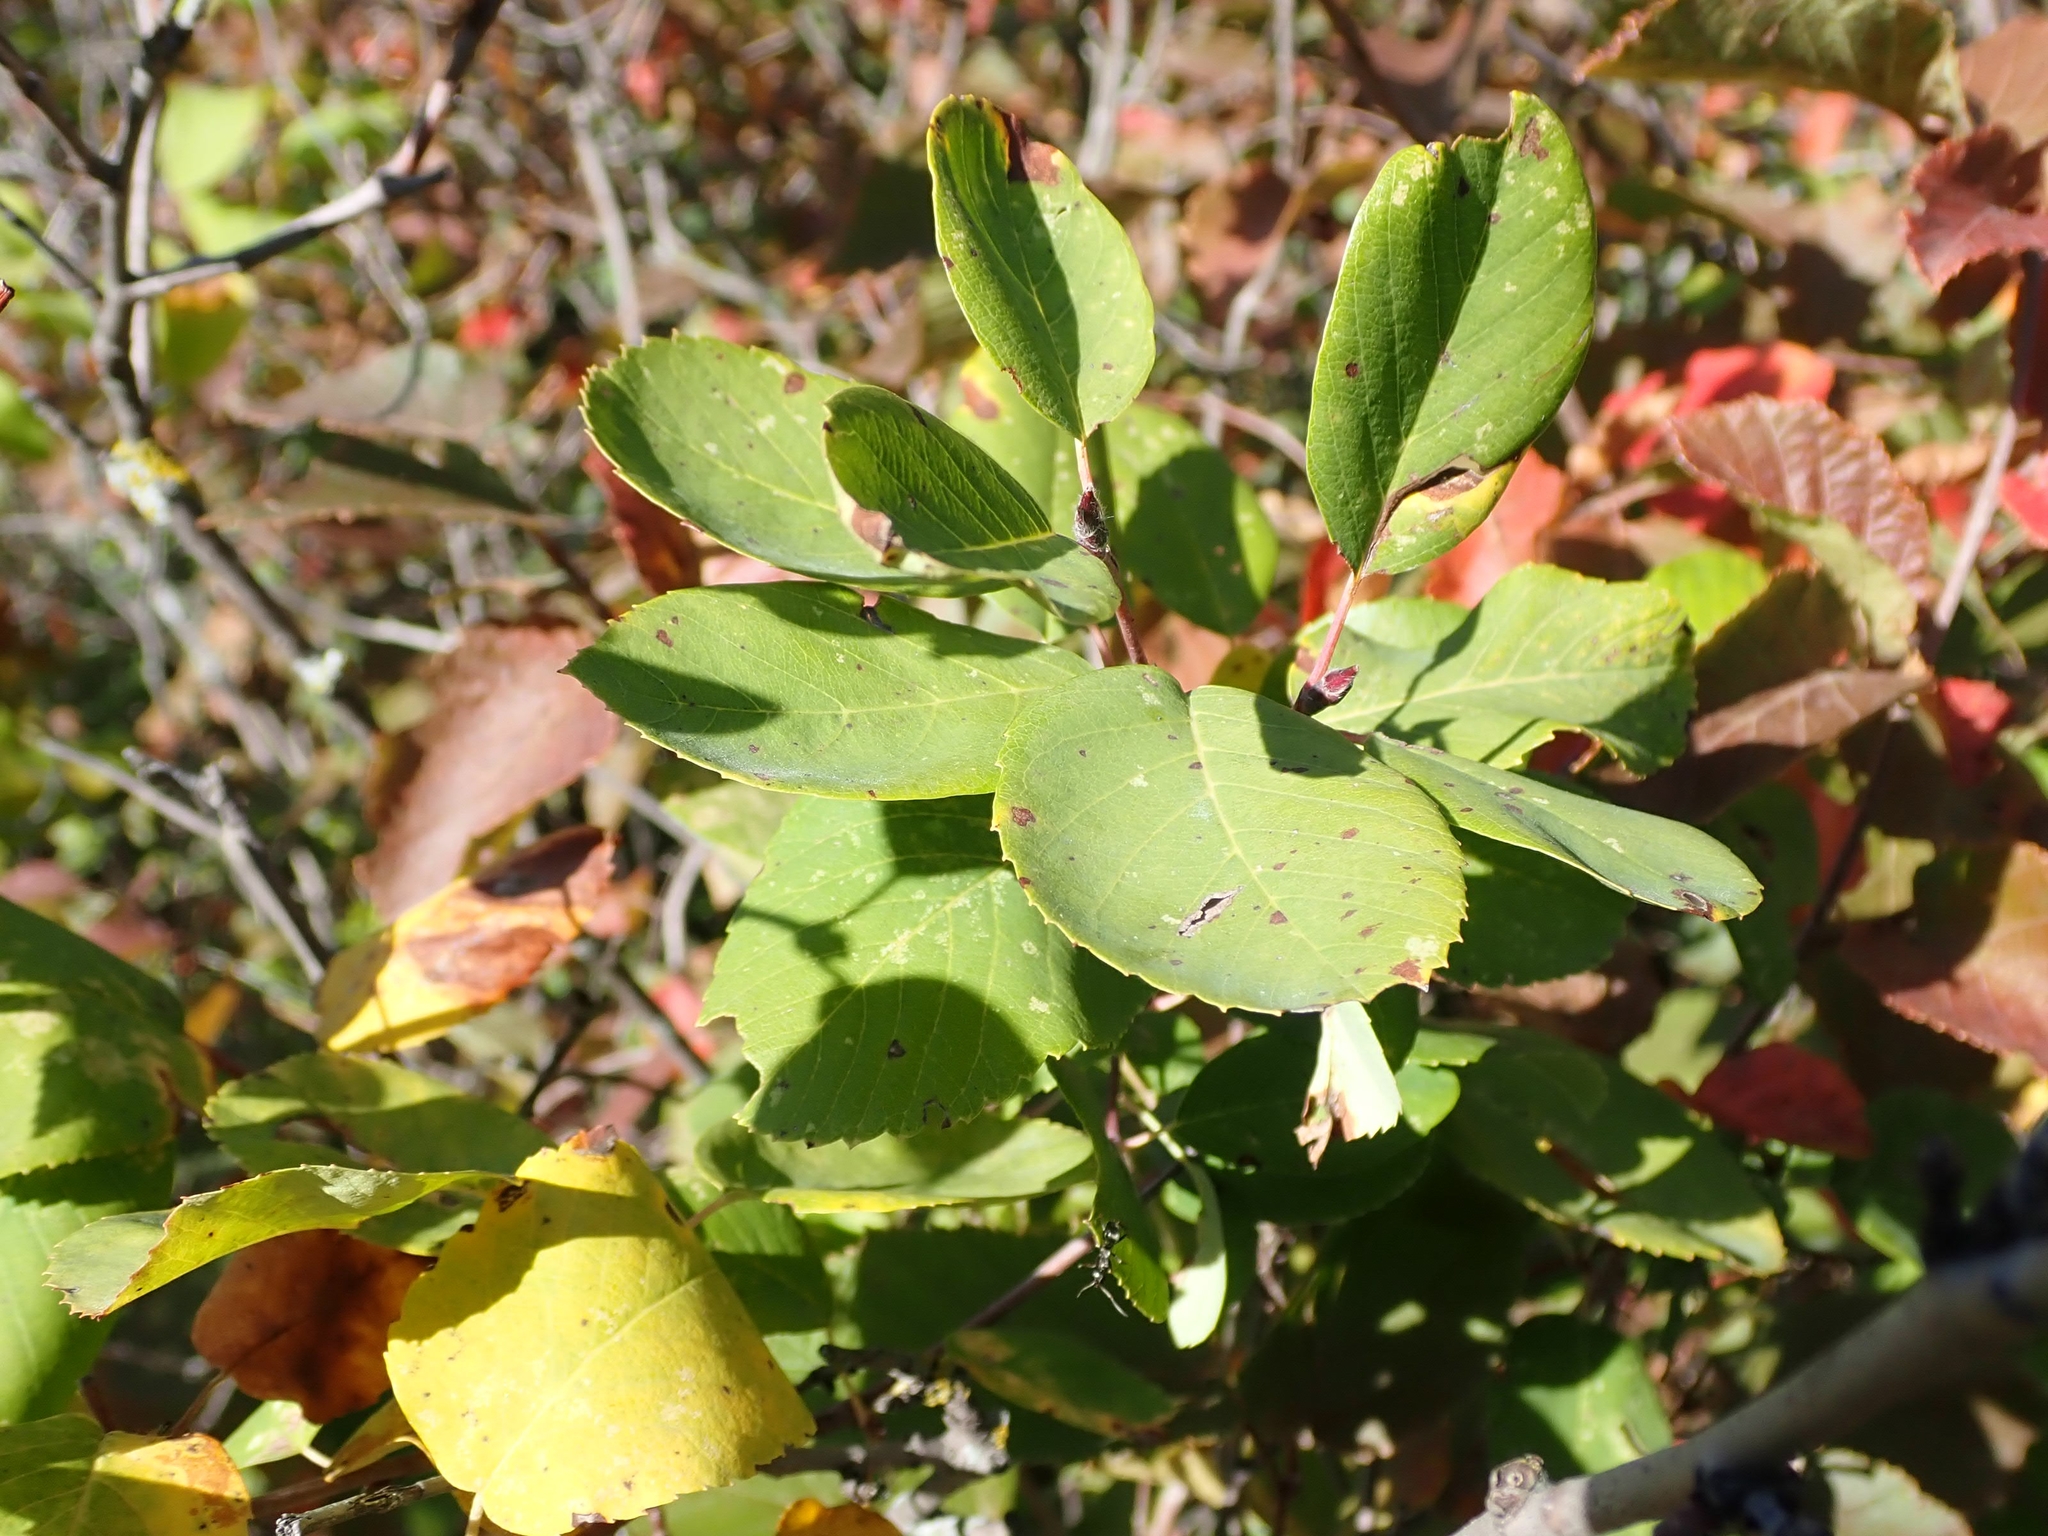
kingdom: Plantae
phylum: Tracheophyta
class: Magnoliopsida
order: Rosales
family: Rosaceae
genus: Amelanchier
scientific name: Amelanchier alnifolia
